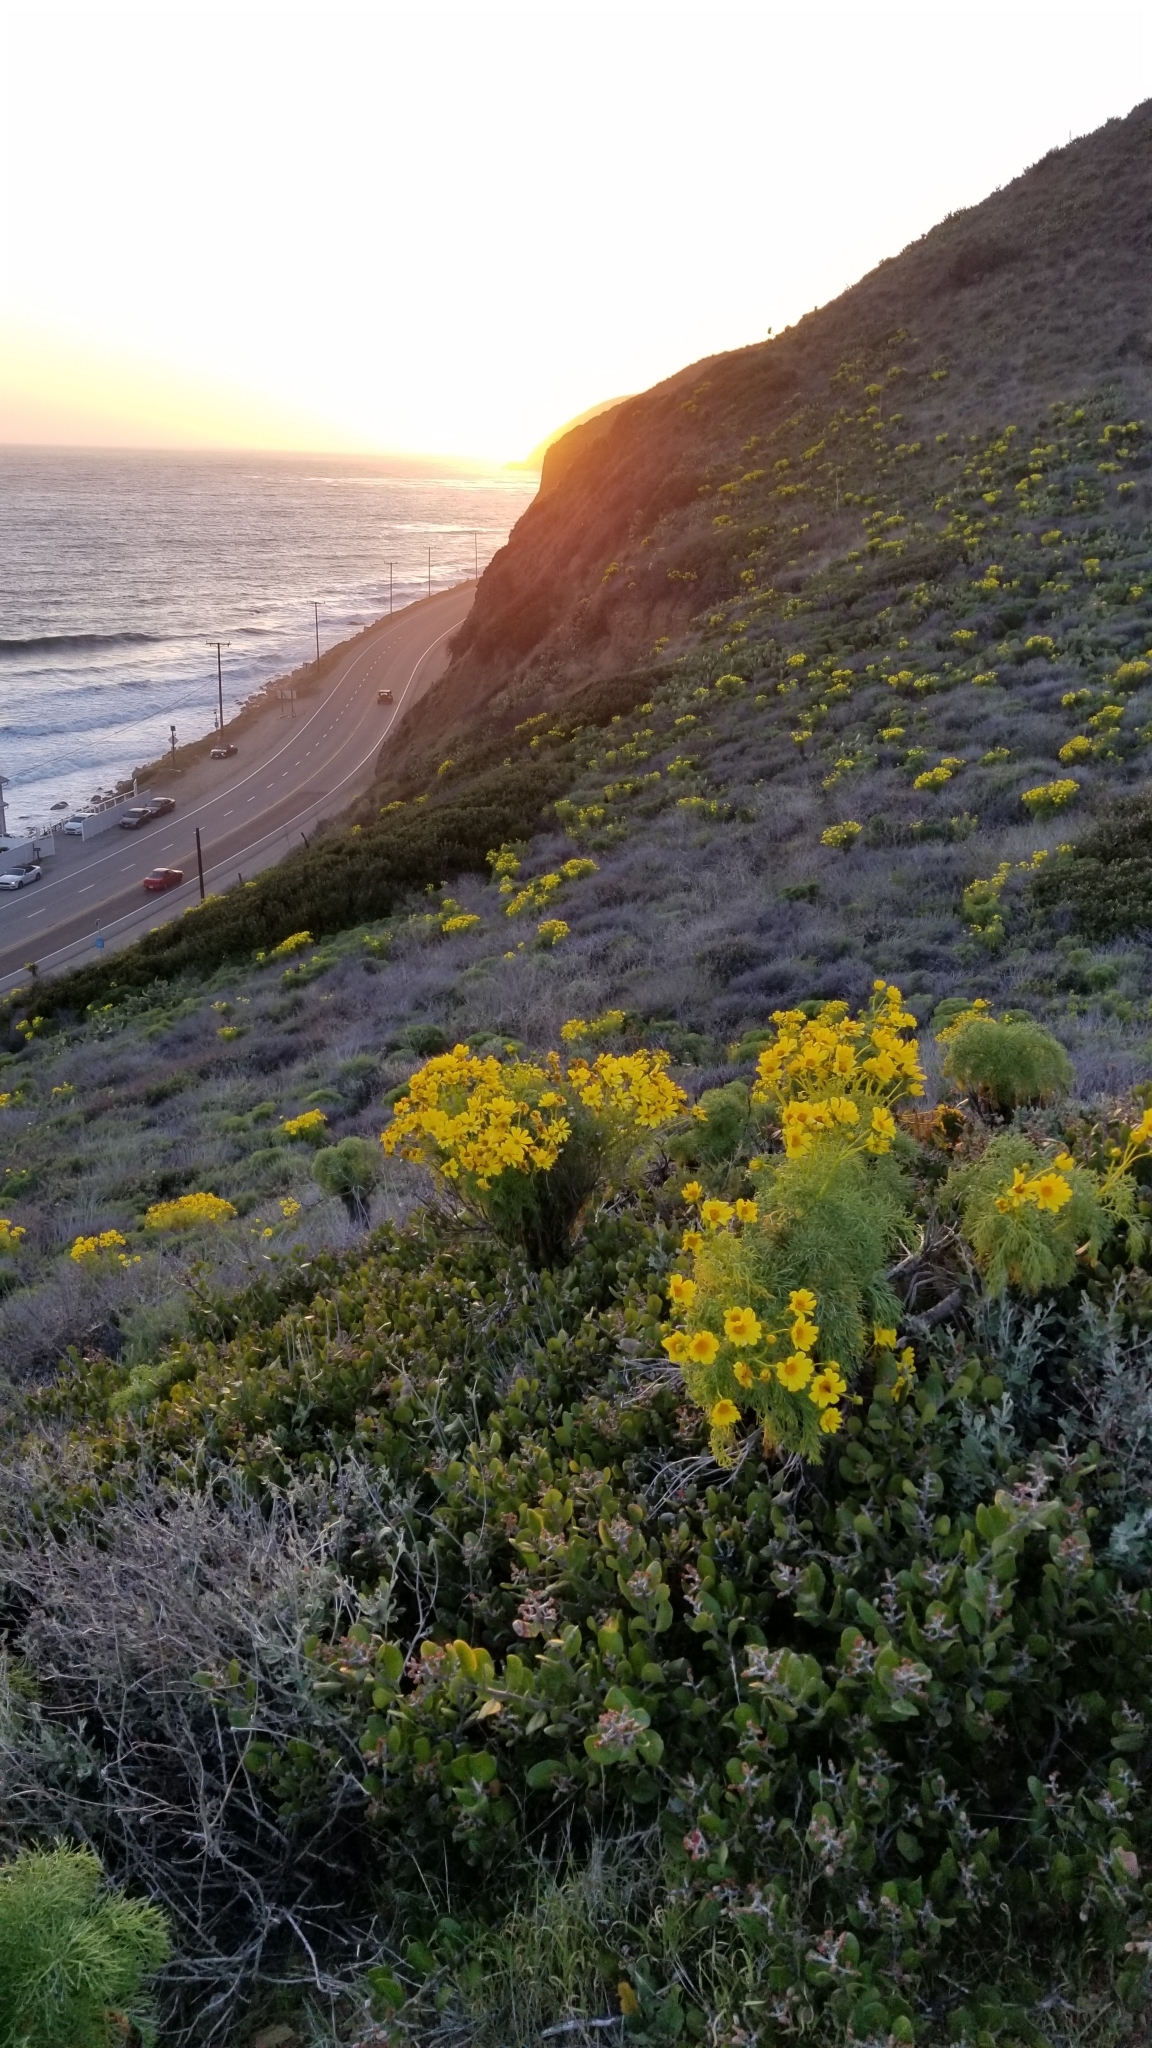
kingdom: Plantae
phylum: Tracheophyta
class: Magnoliopsida
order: Asterales
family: Asteraceae
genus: Coreopsis
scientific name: Coreopsis gigantea
